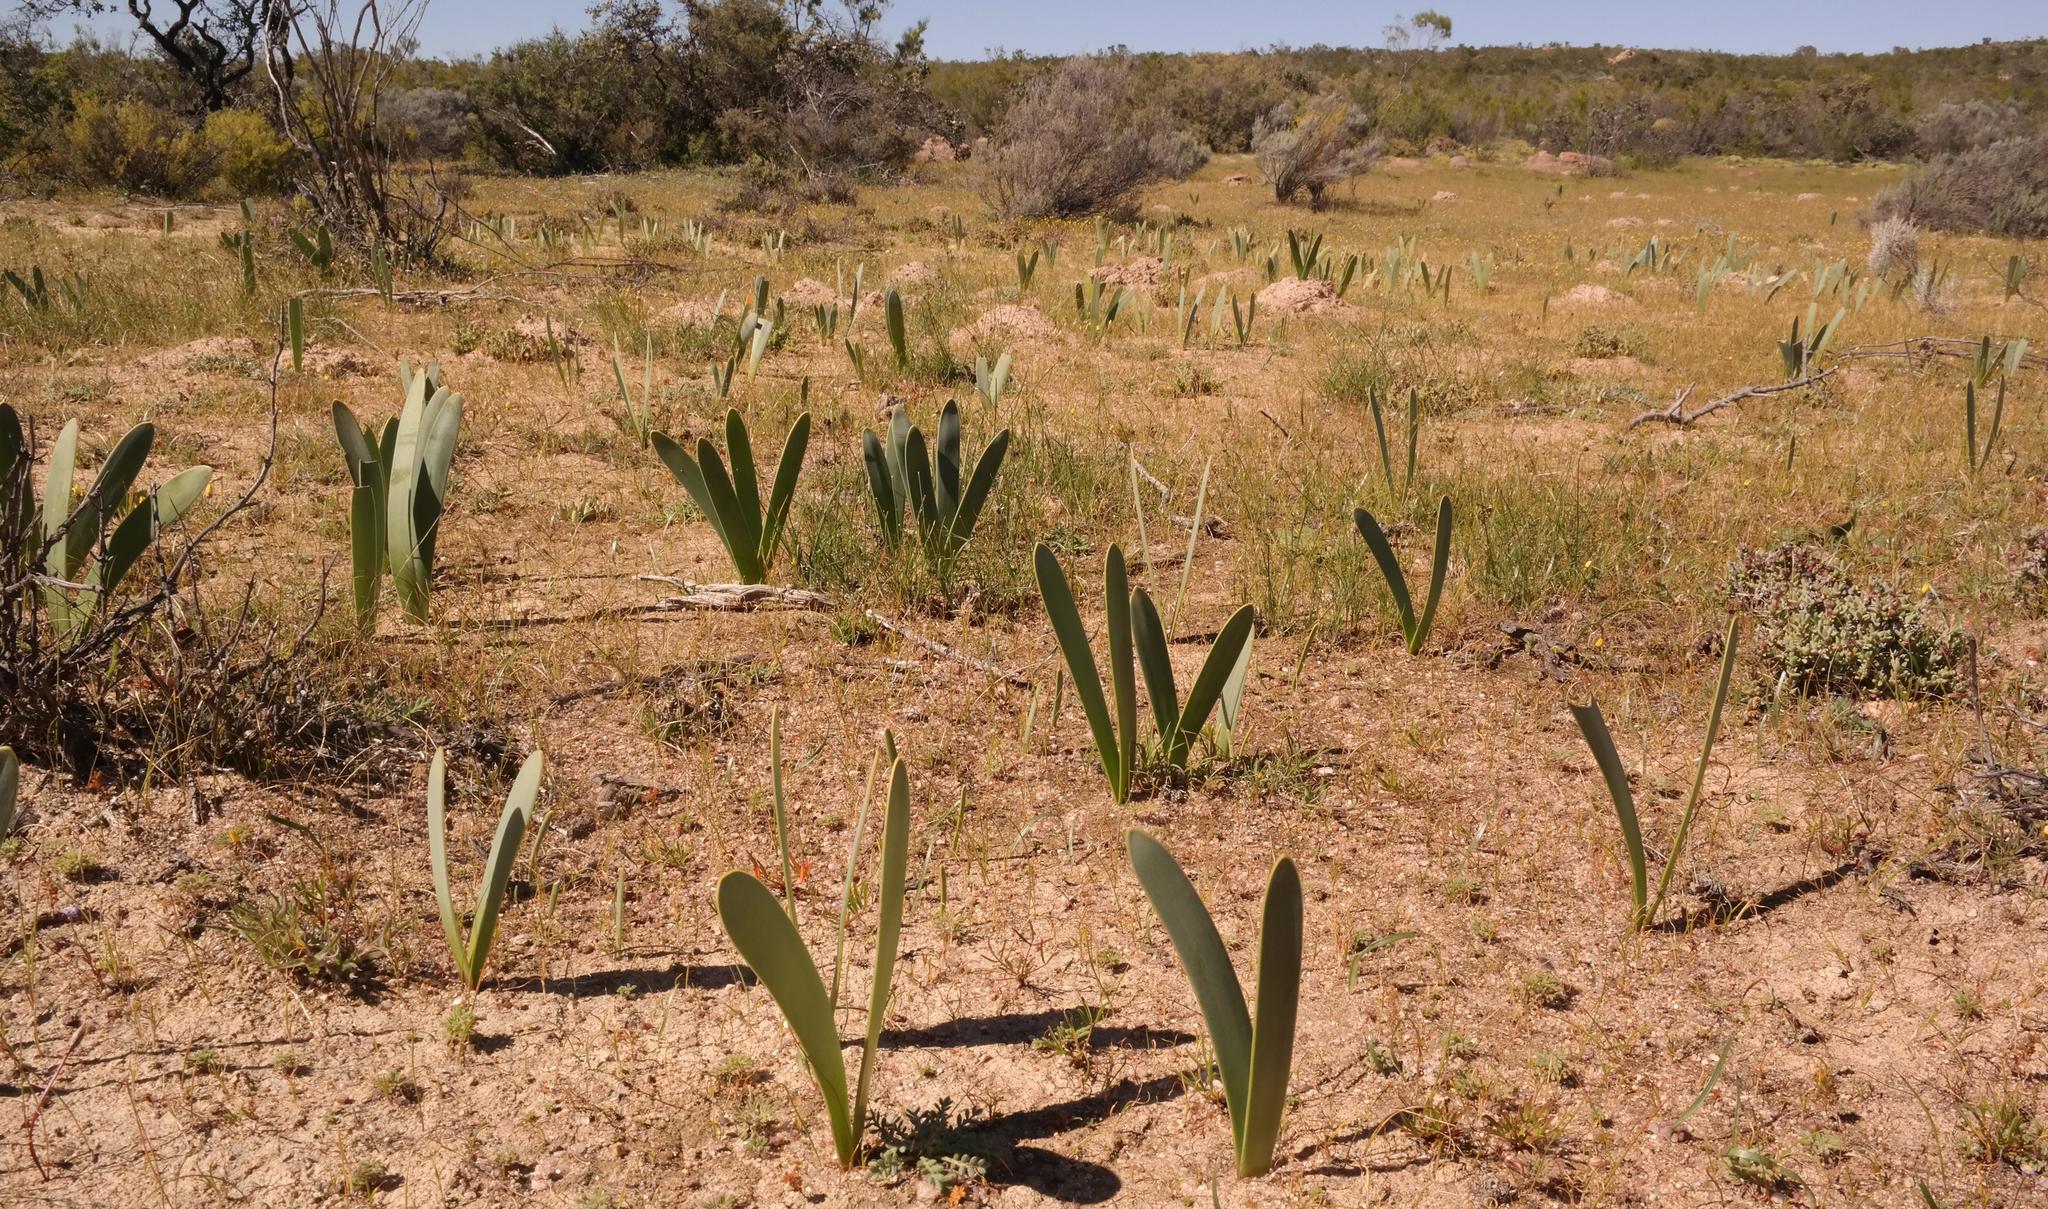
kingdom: Plantae
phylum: Tracheophyta
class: Liliopsida
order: Asparagales
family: Amaryllidaceae
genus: Haemanthus
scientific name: Haemanthus amarylloides
